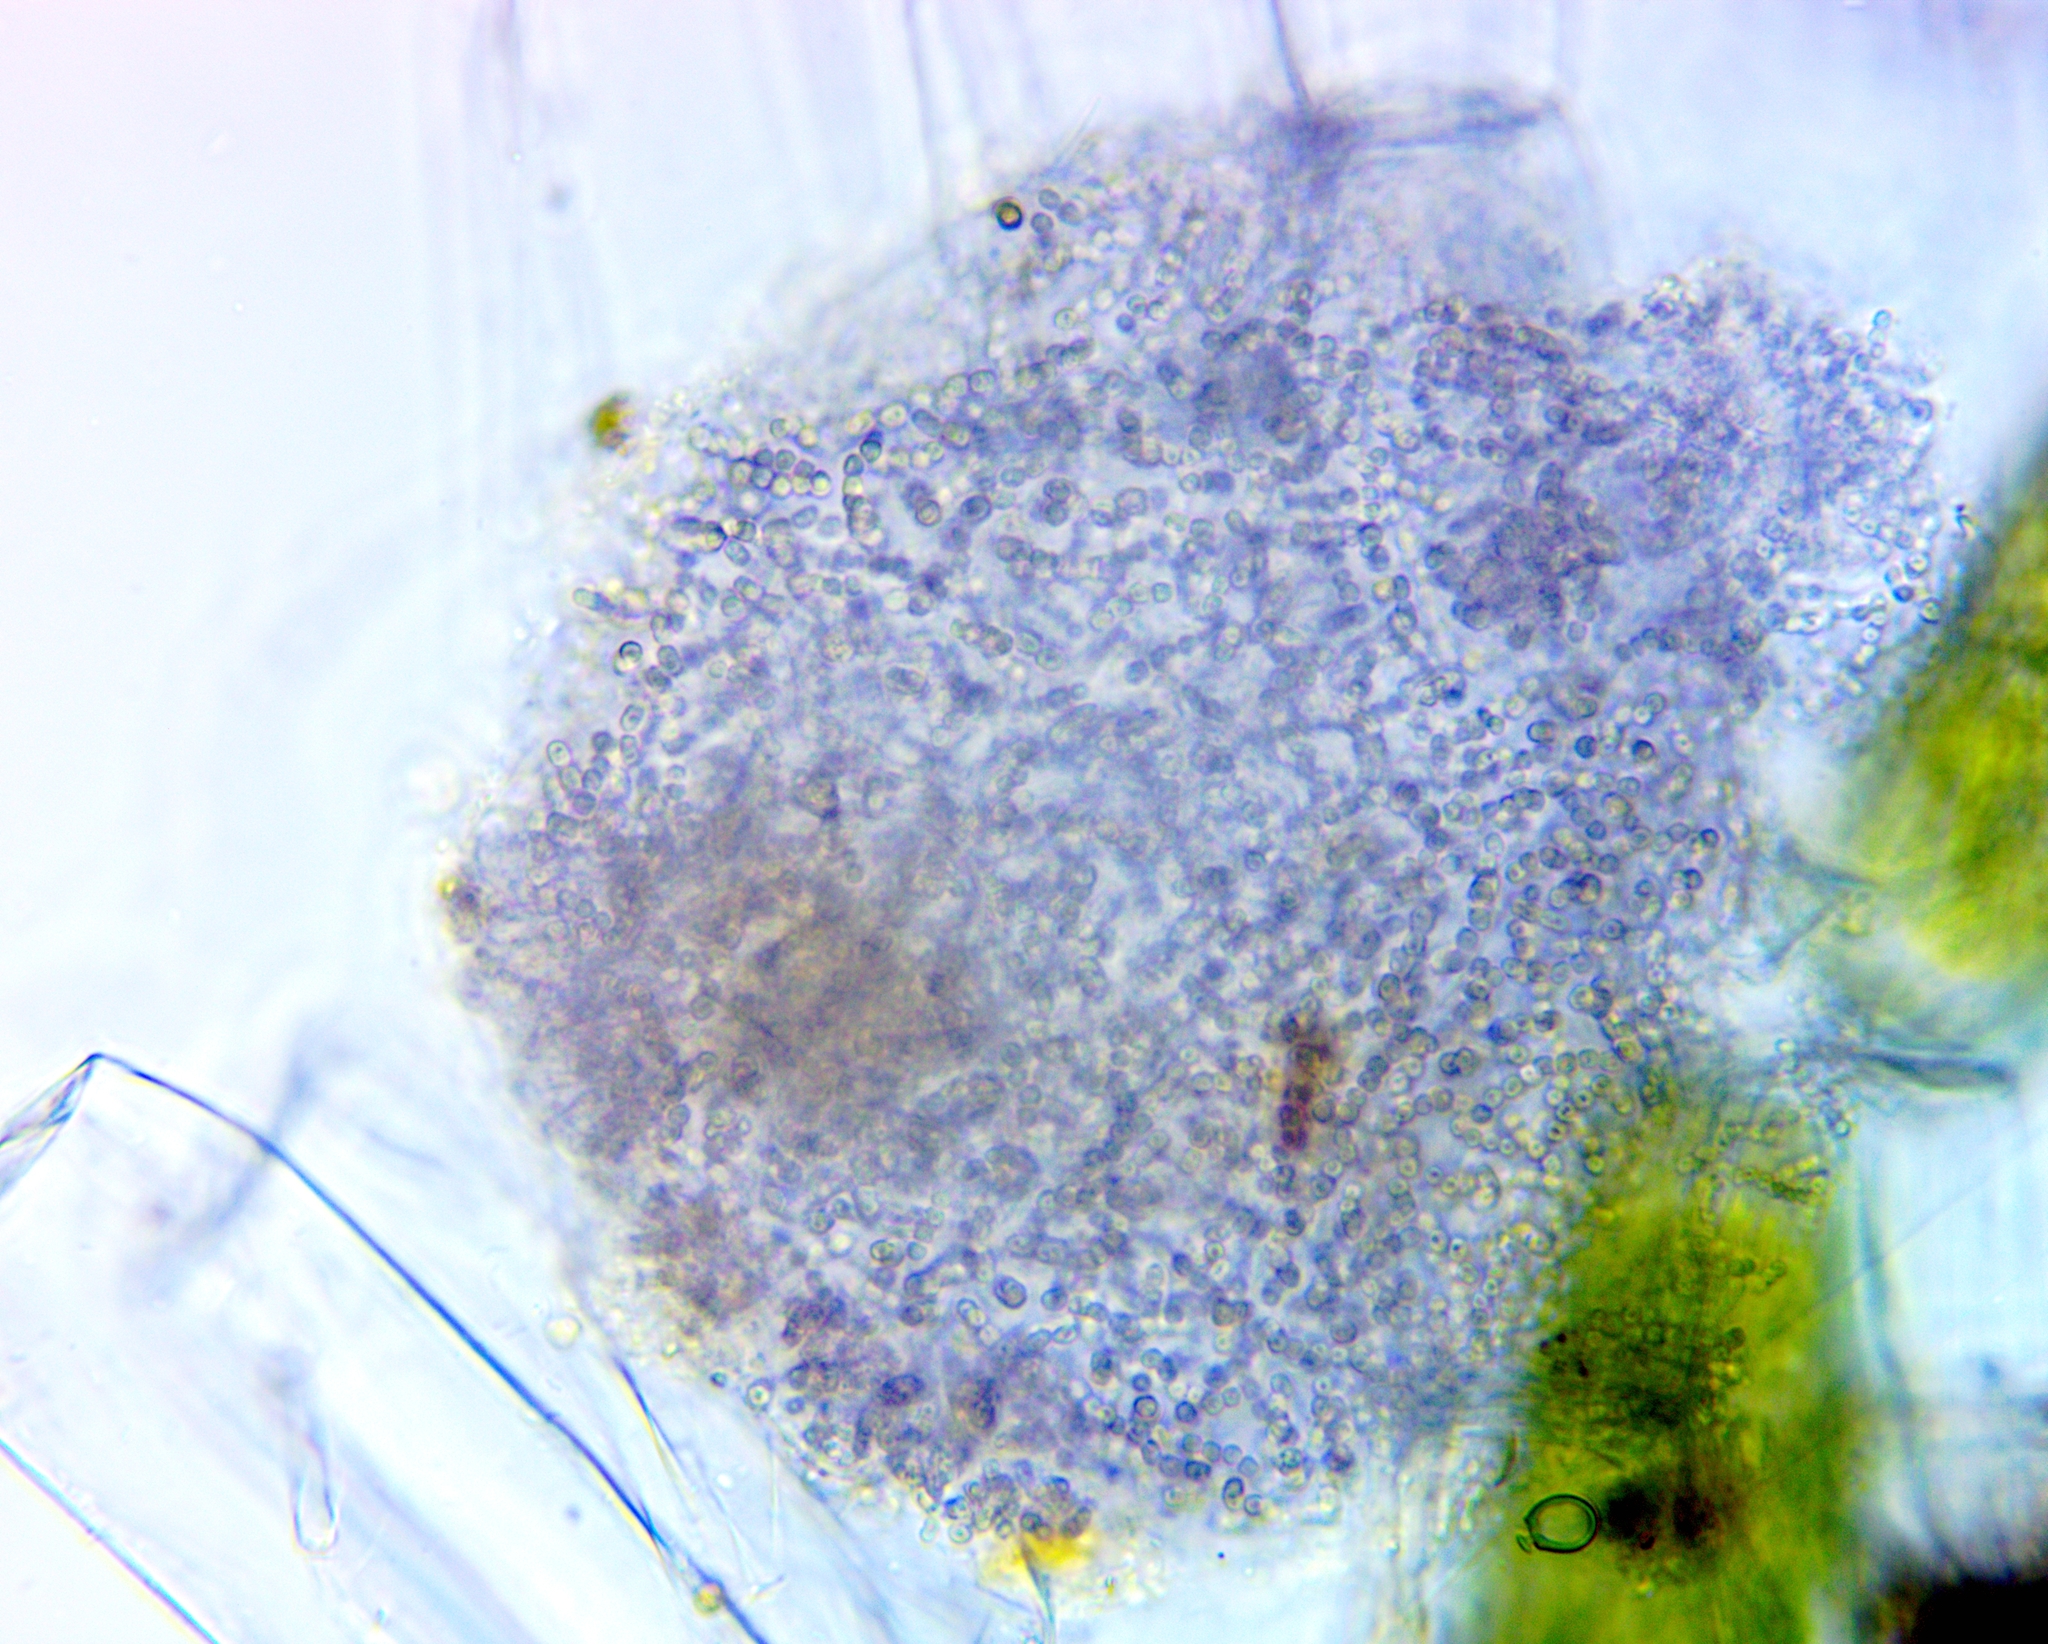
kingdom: Bacteria
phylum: Proteobacteria
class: Gammaproteobacteria
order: Chromatiales
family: Chromatiaceae
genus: Lamprocystis
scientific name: Lamprocystis roseopersicina
